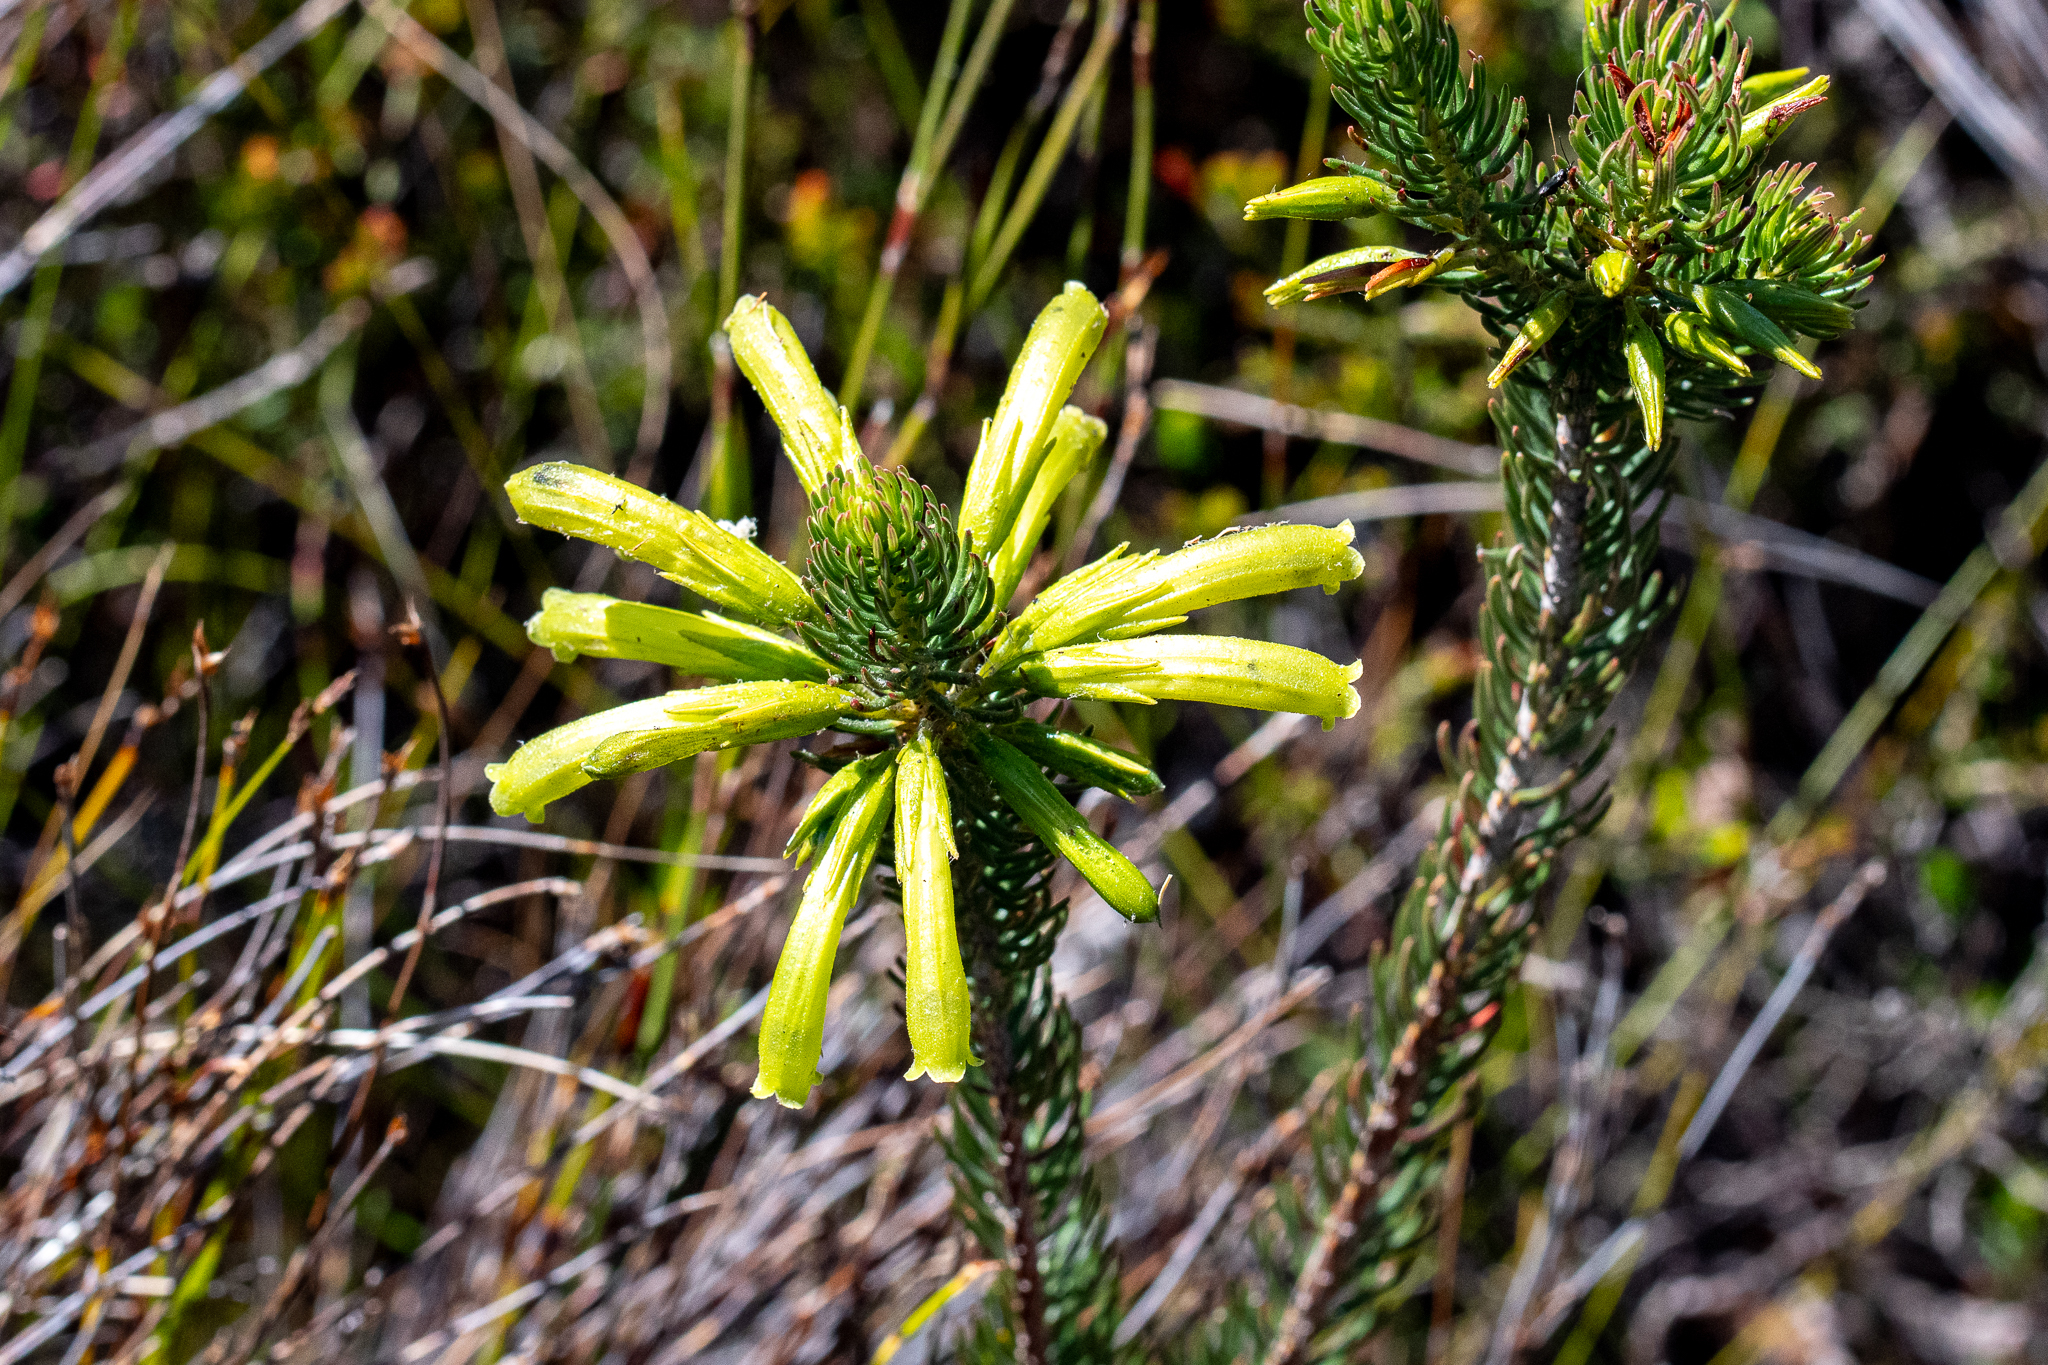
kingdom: Plantae
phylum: Tracheophyta
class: Magnoliopsida
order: Ericales
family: Ericaceae
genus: Erica
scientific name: Erica thomae
